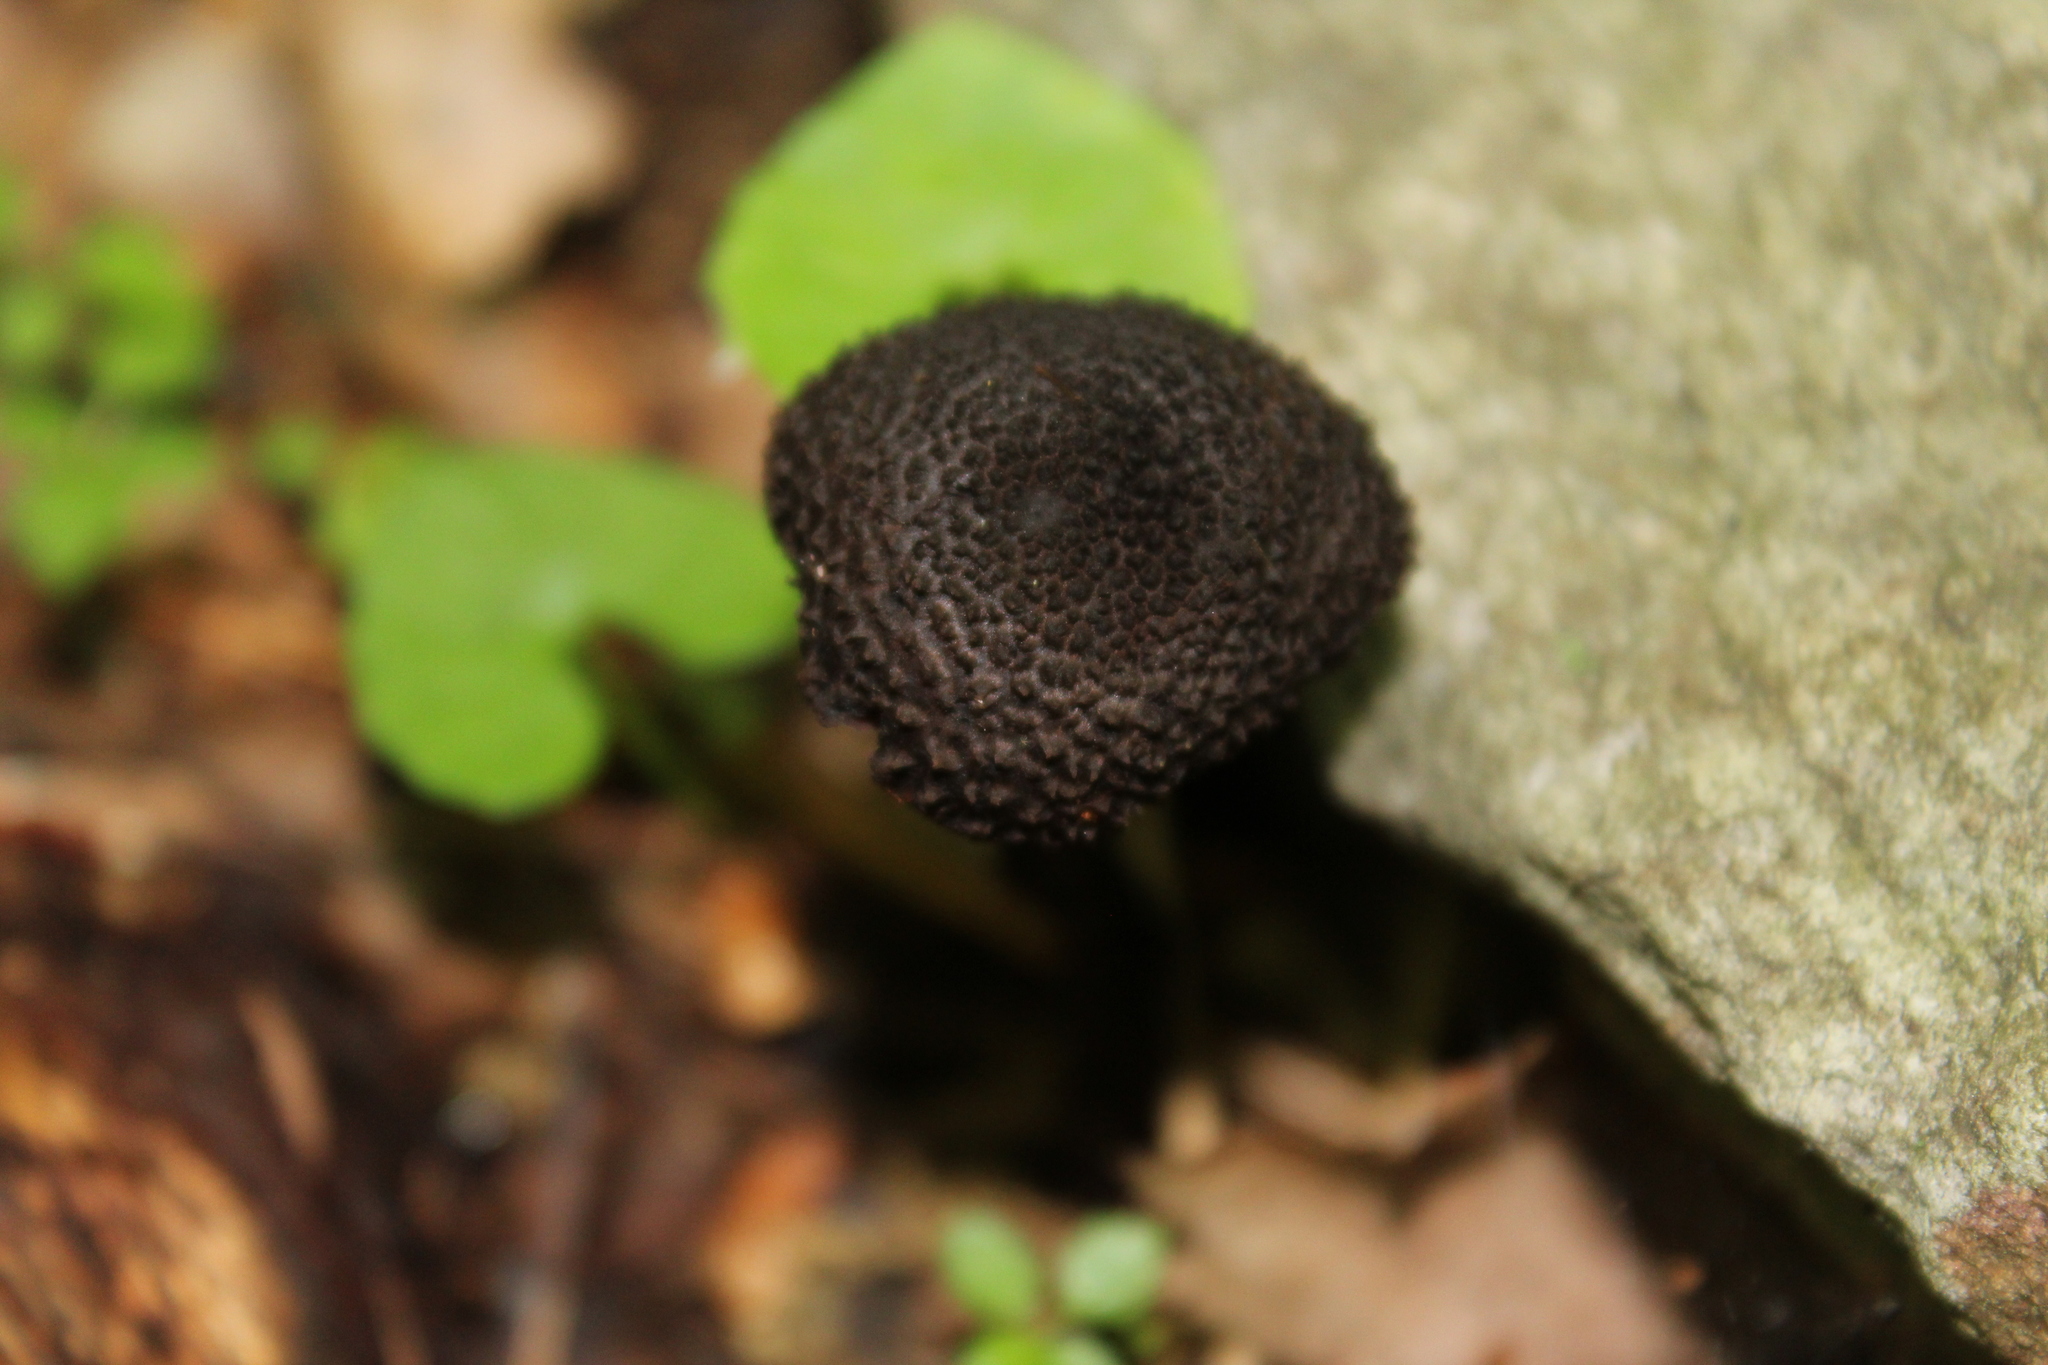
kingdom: Fungi
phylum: Basidiomycota
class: Agaricomycetes
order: Boletales
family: Boletaceae
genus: Strobilomyces
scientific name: Strobilomyces strobilaceus
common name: Old man of the woods
